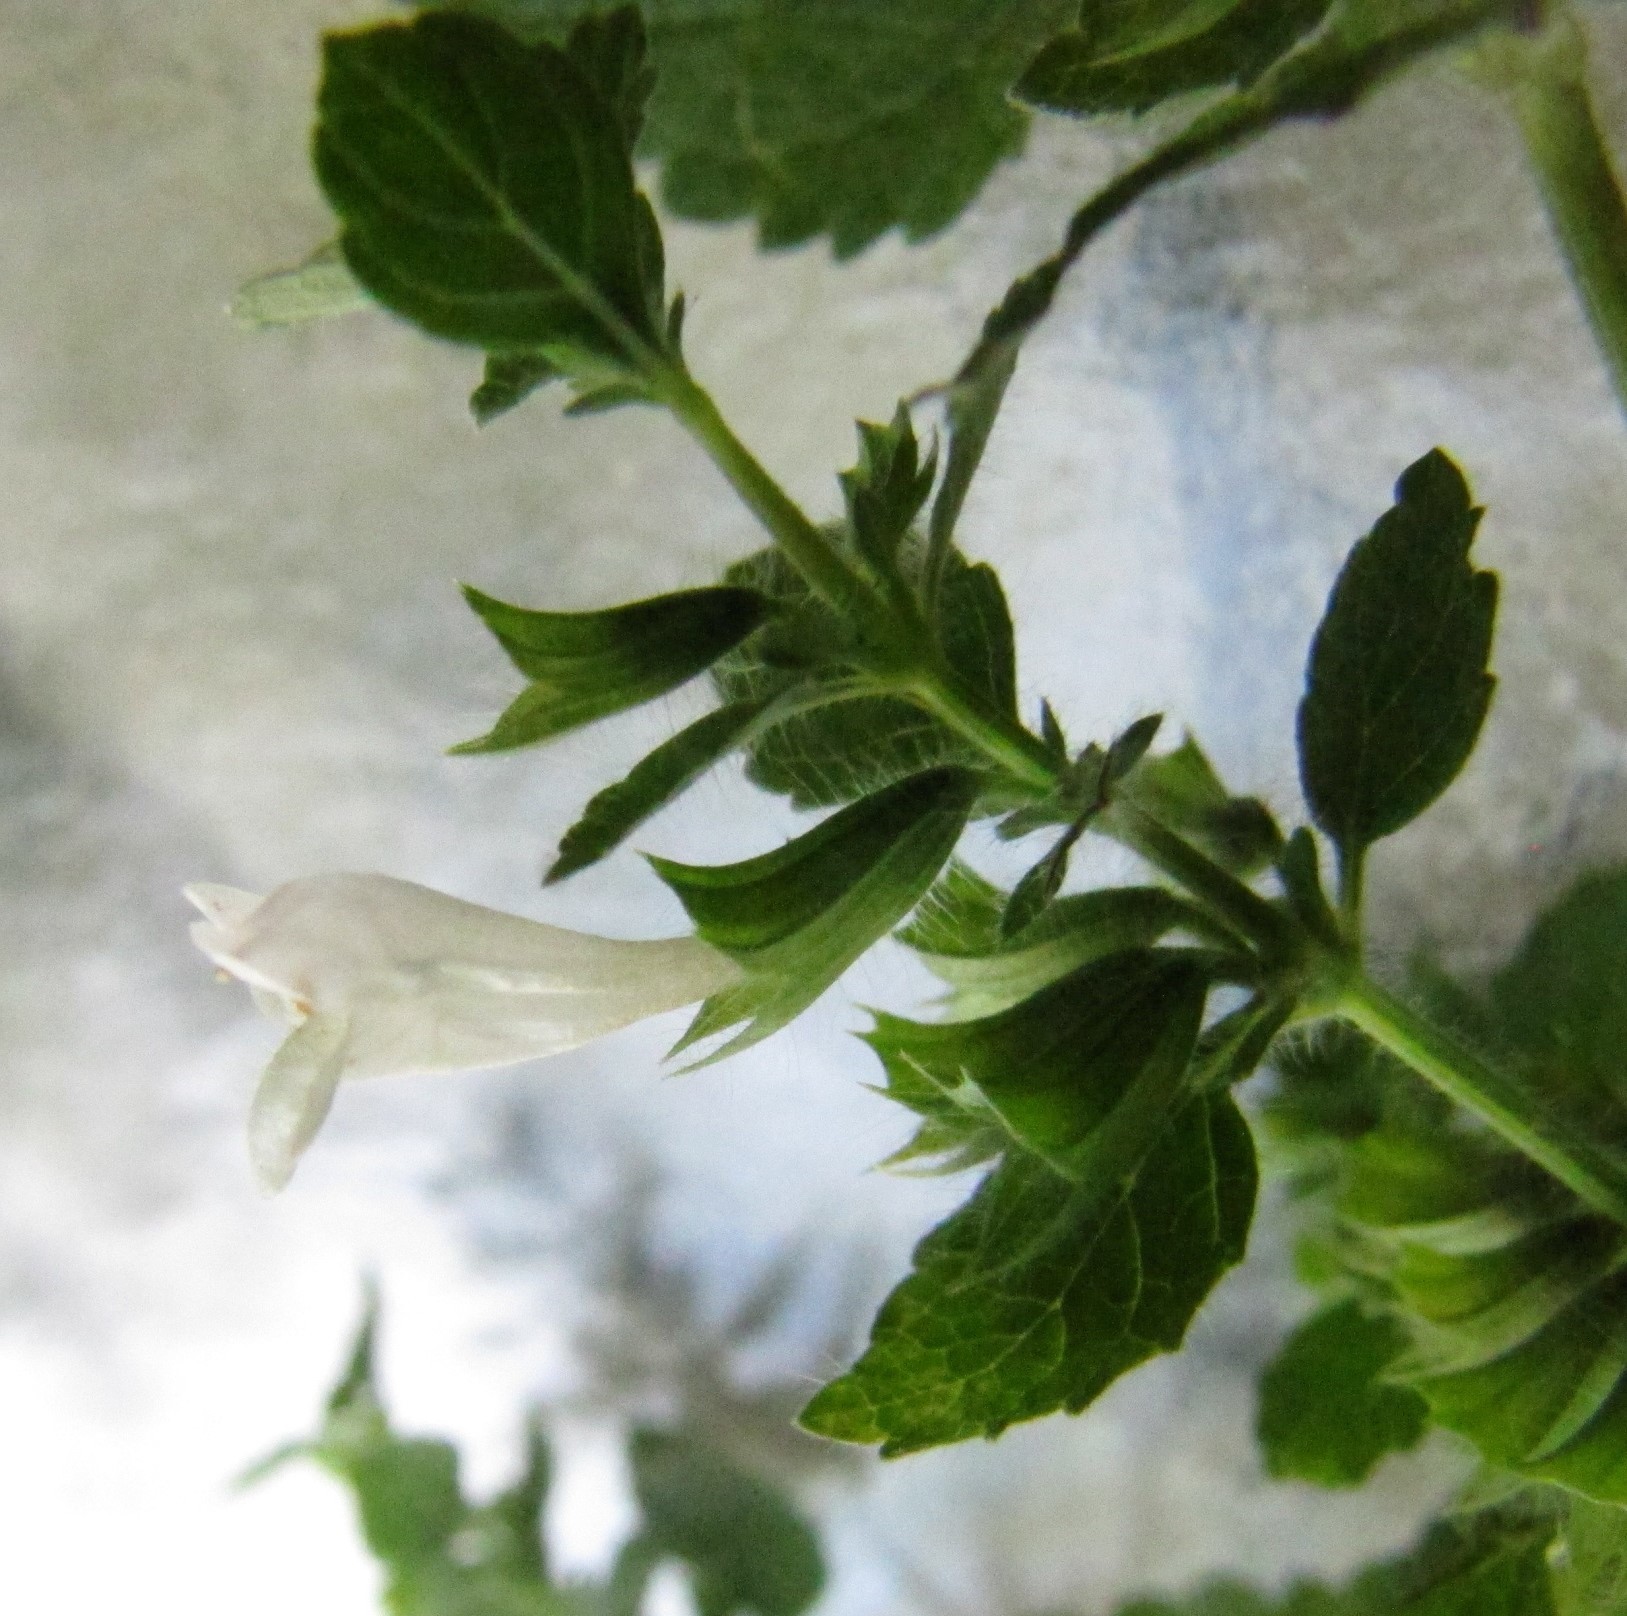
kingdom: Plantae
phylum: Tracheophyta
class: Magnoliopsida
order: Lamiales
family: Lamiaceae
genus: Melissa
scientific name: Melissa officinalis
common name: Balm
